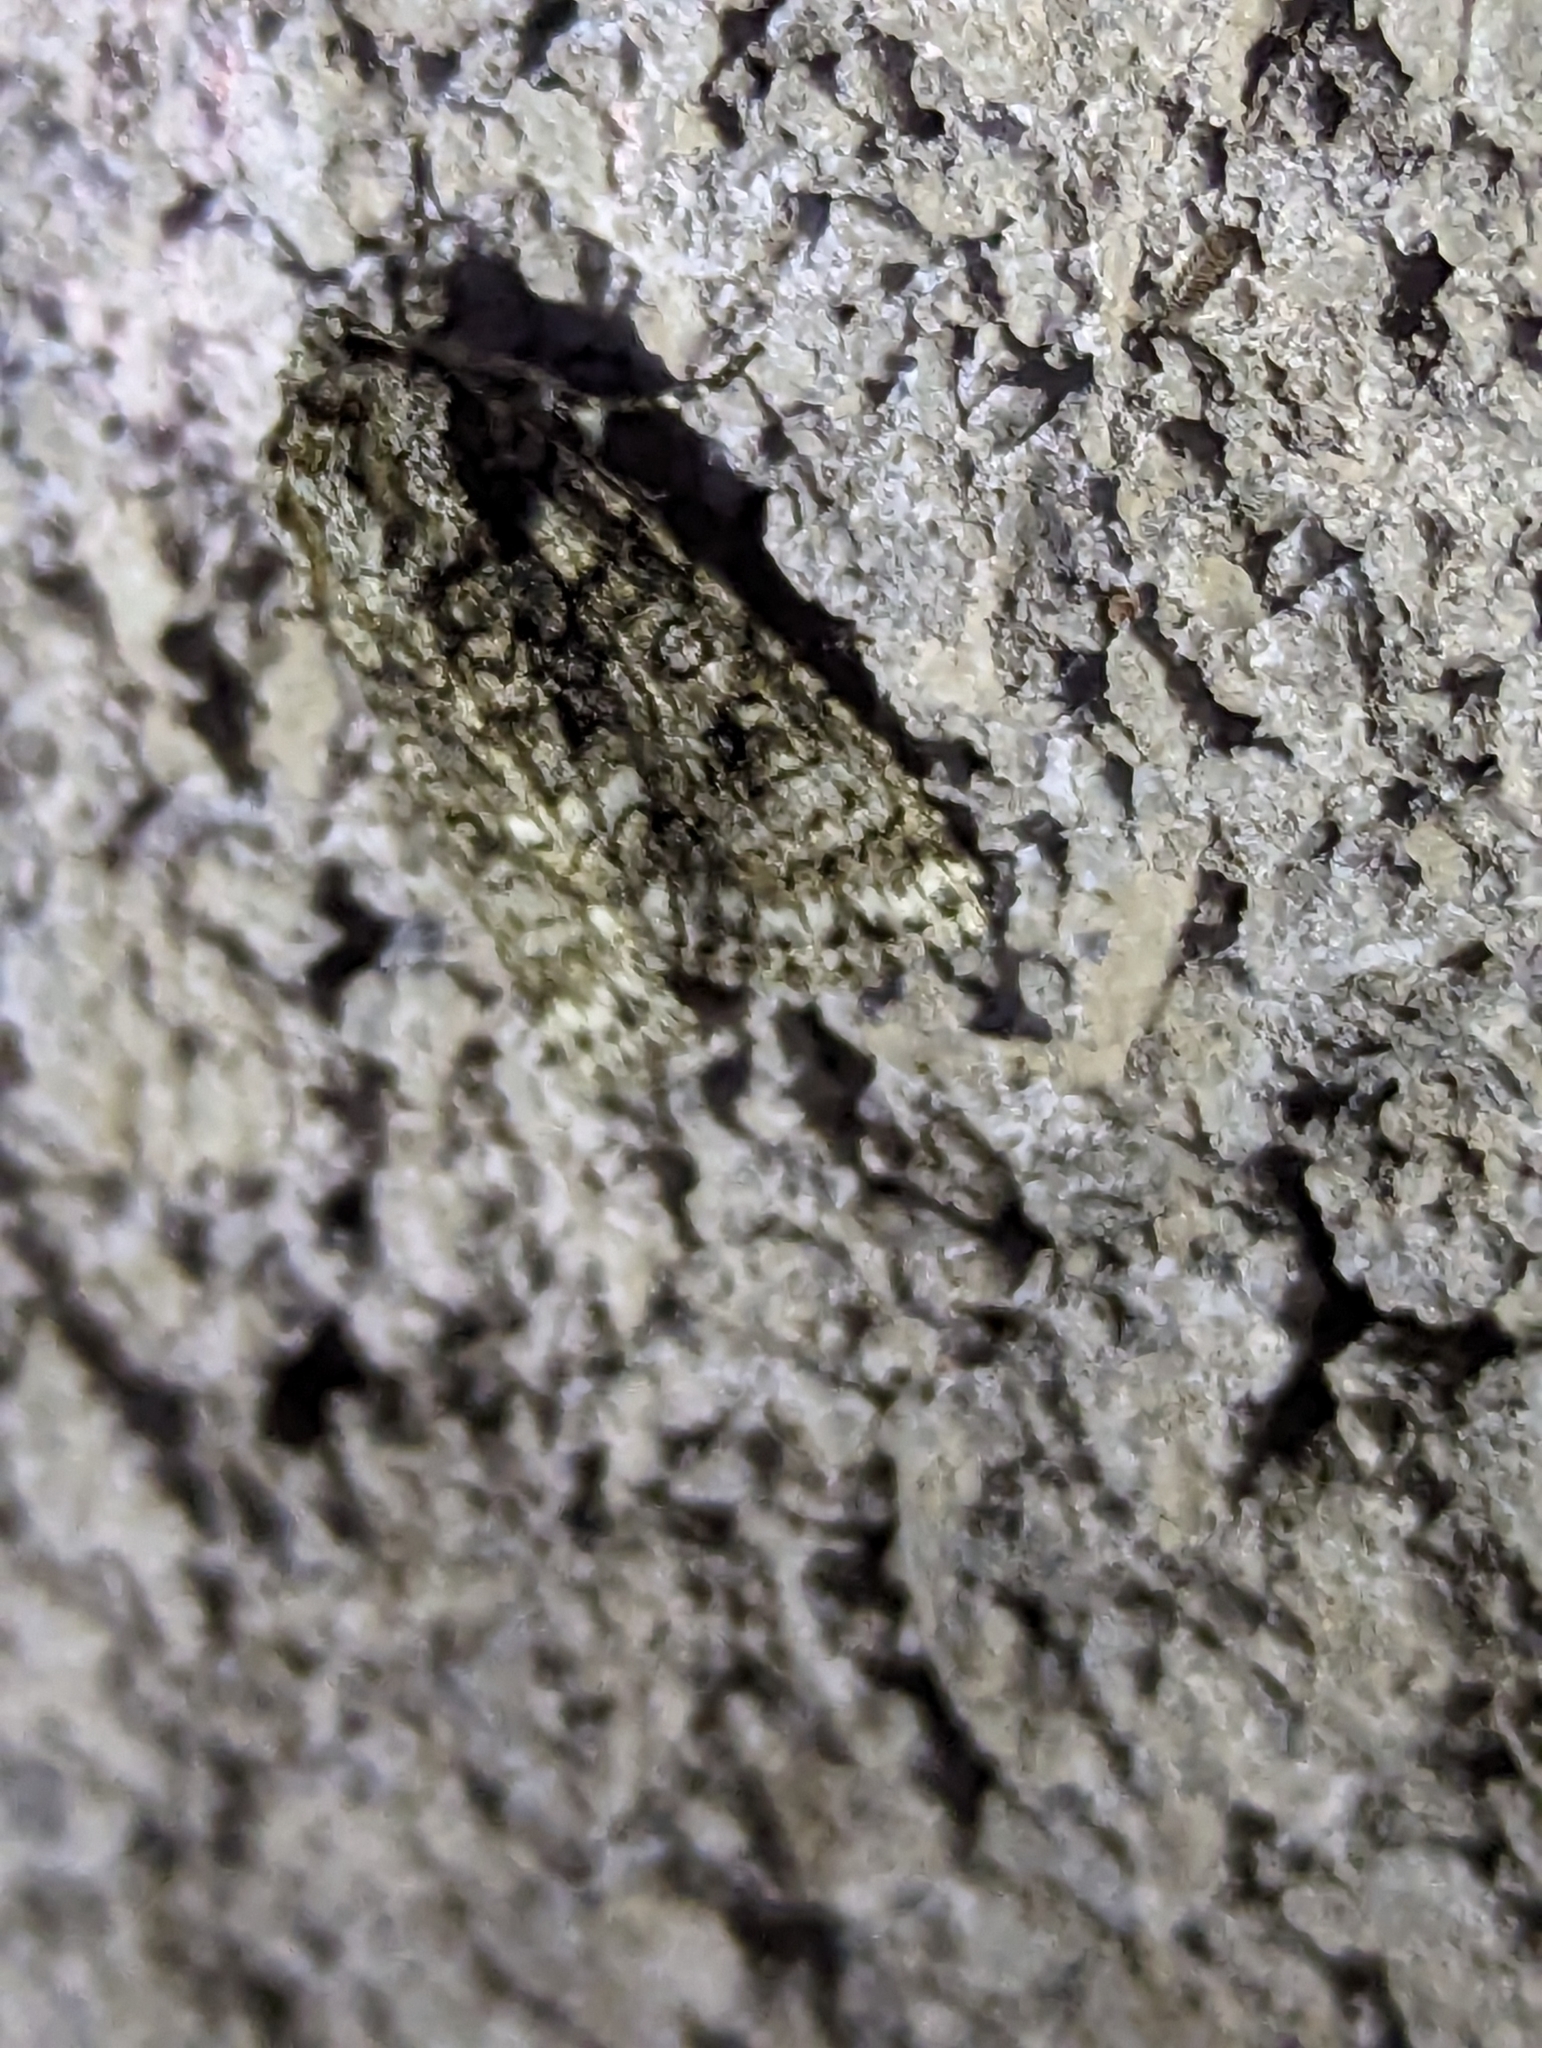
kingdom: Animalia
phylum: Arthropoda
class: Insecta
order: Lepidoptera
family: Noctuidae
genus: Acronicta
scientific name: Acronicta rumicis
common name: Knot grass
